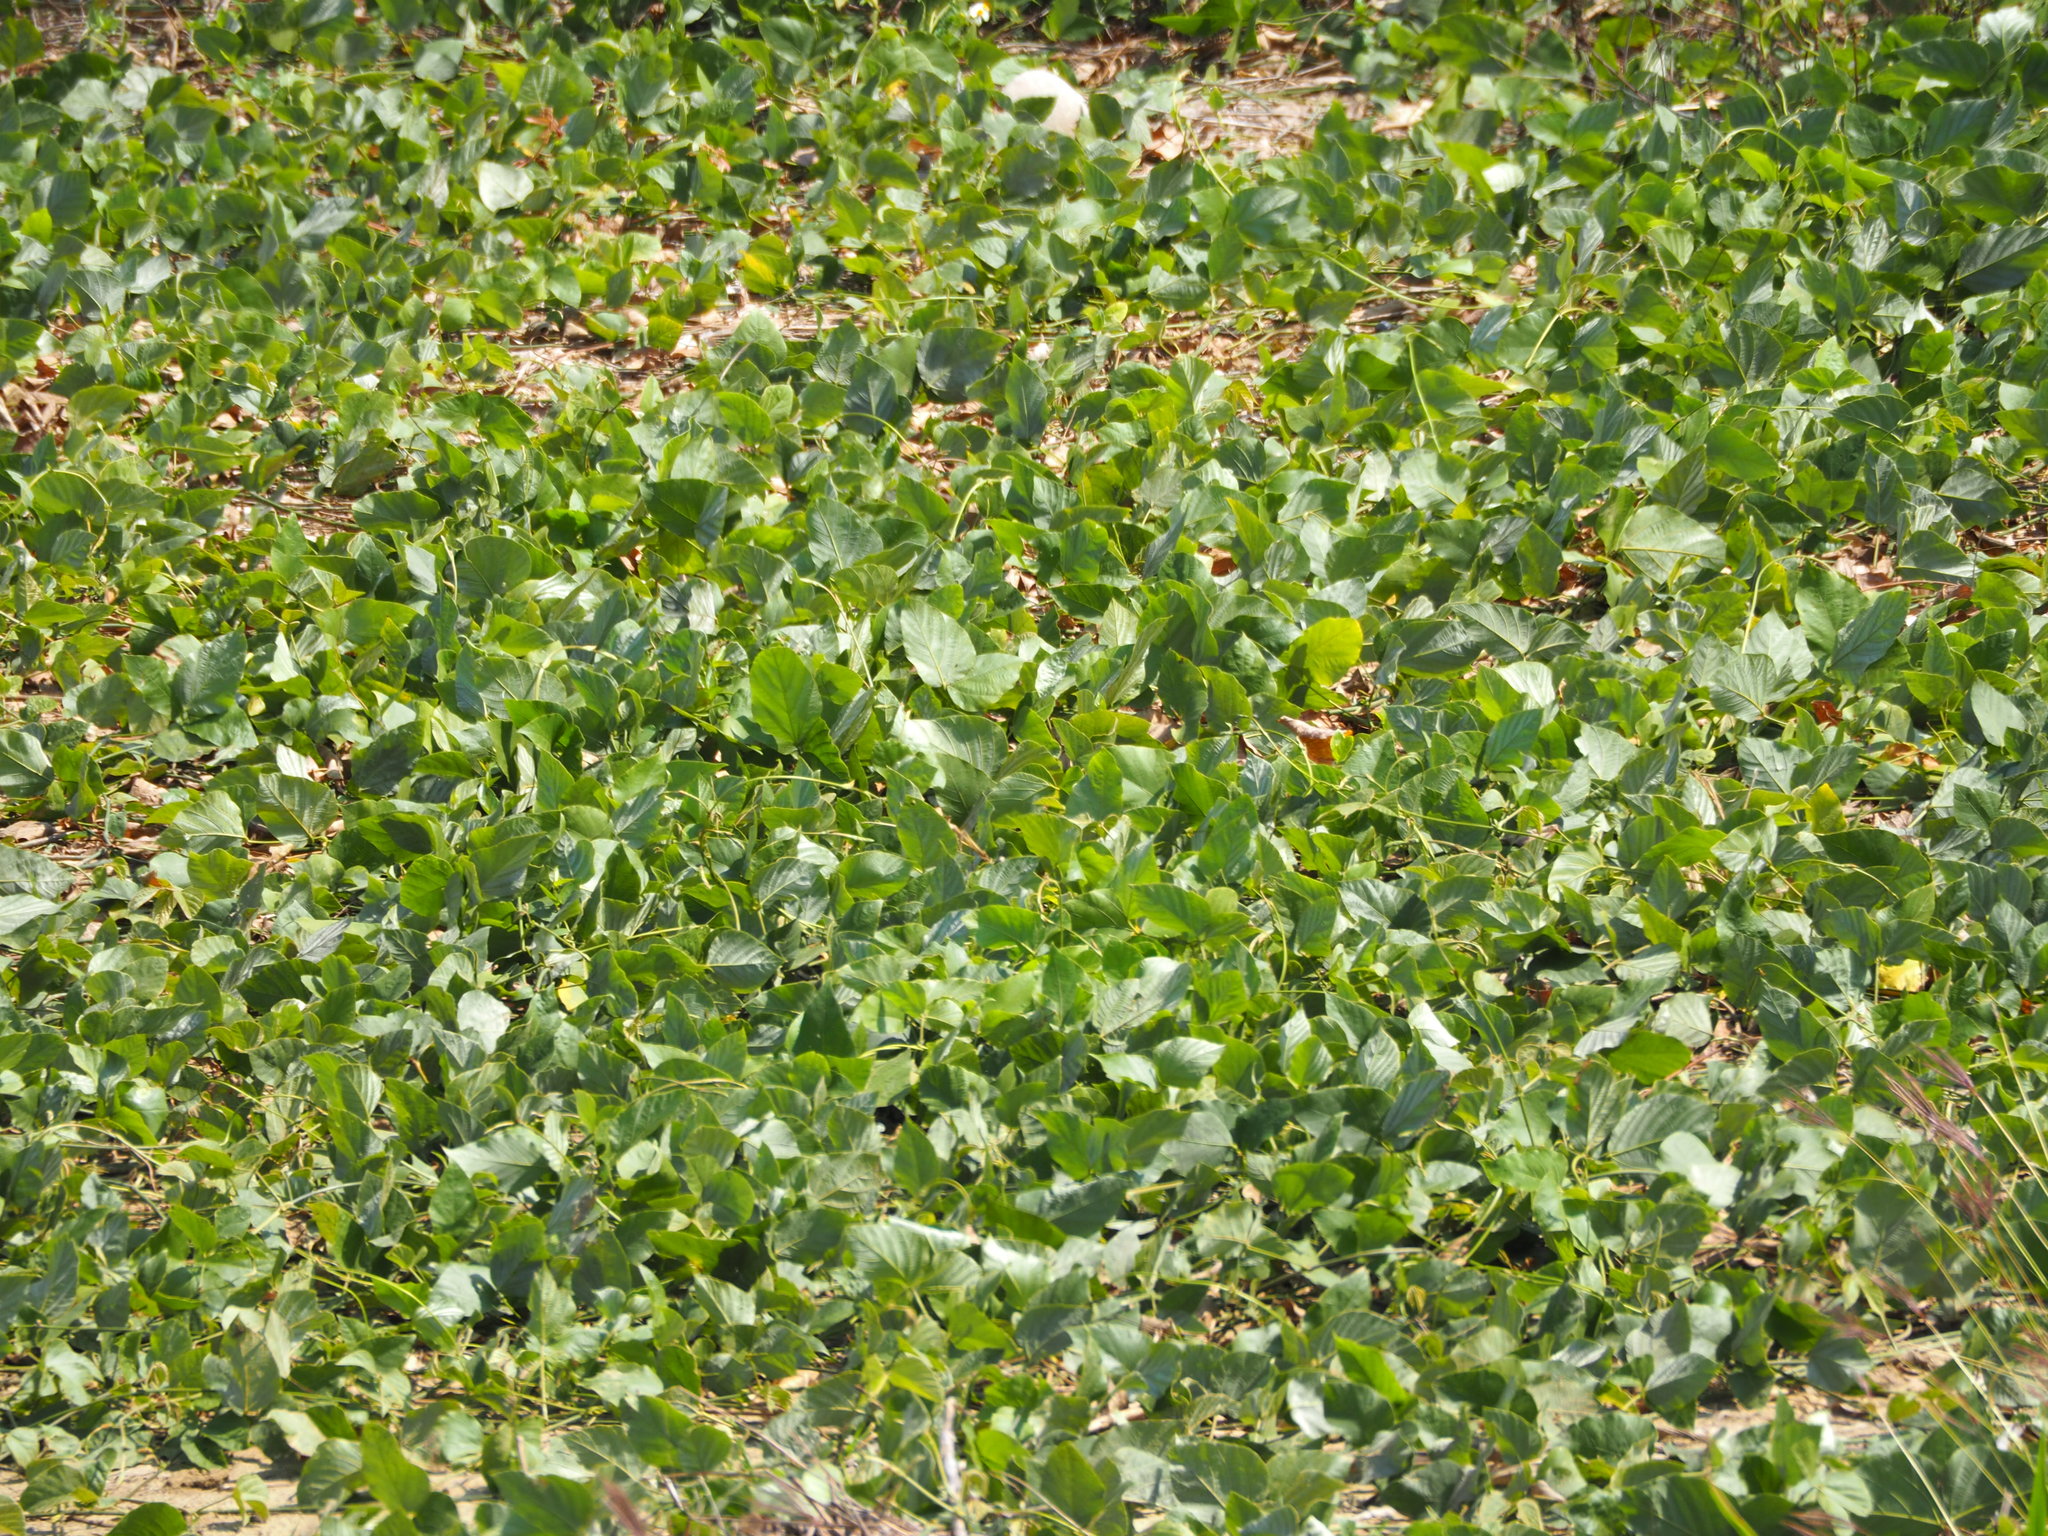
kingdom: Plantae
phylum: Tracheophyta
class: Magnoliopsida
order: Fabales
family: Fabaceae
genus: Pueraria
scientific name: Pueraria montana
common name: Kudzu
